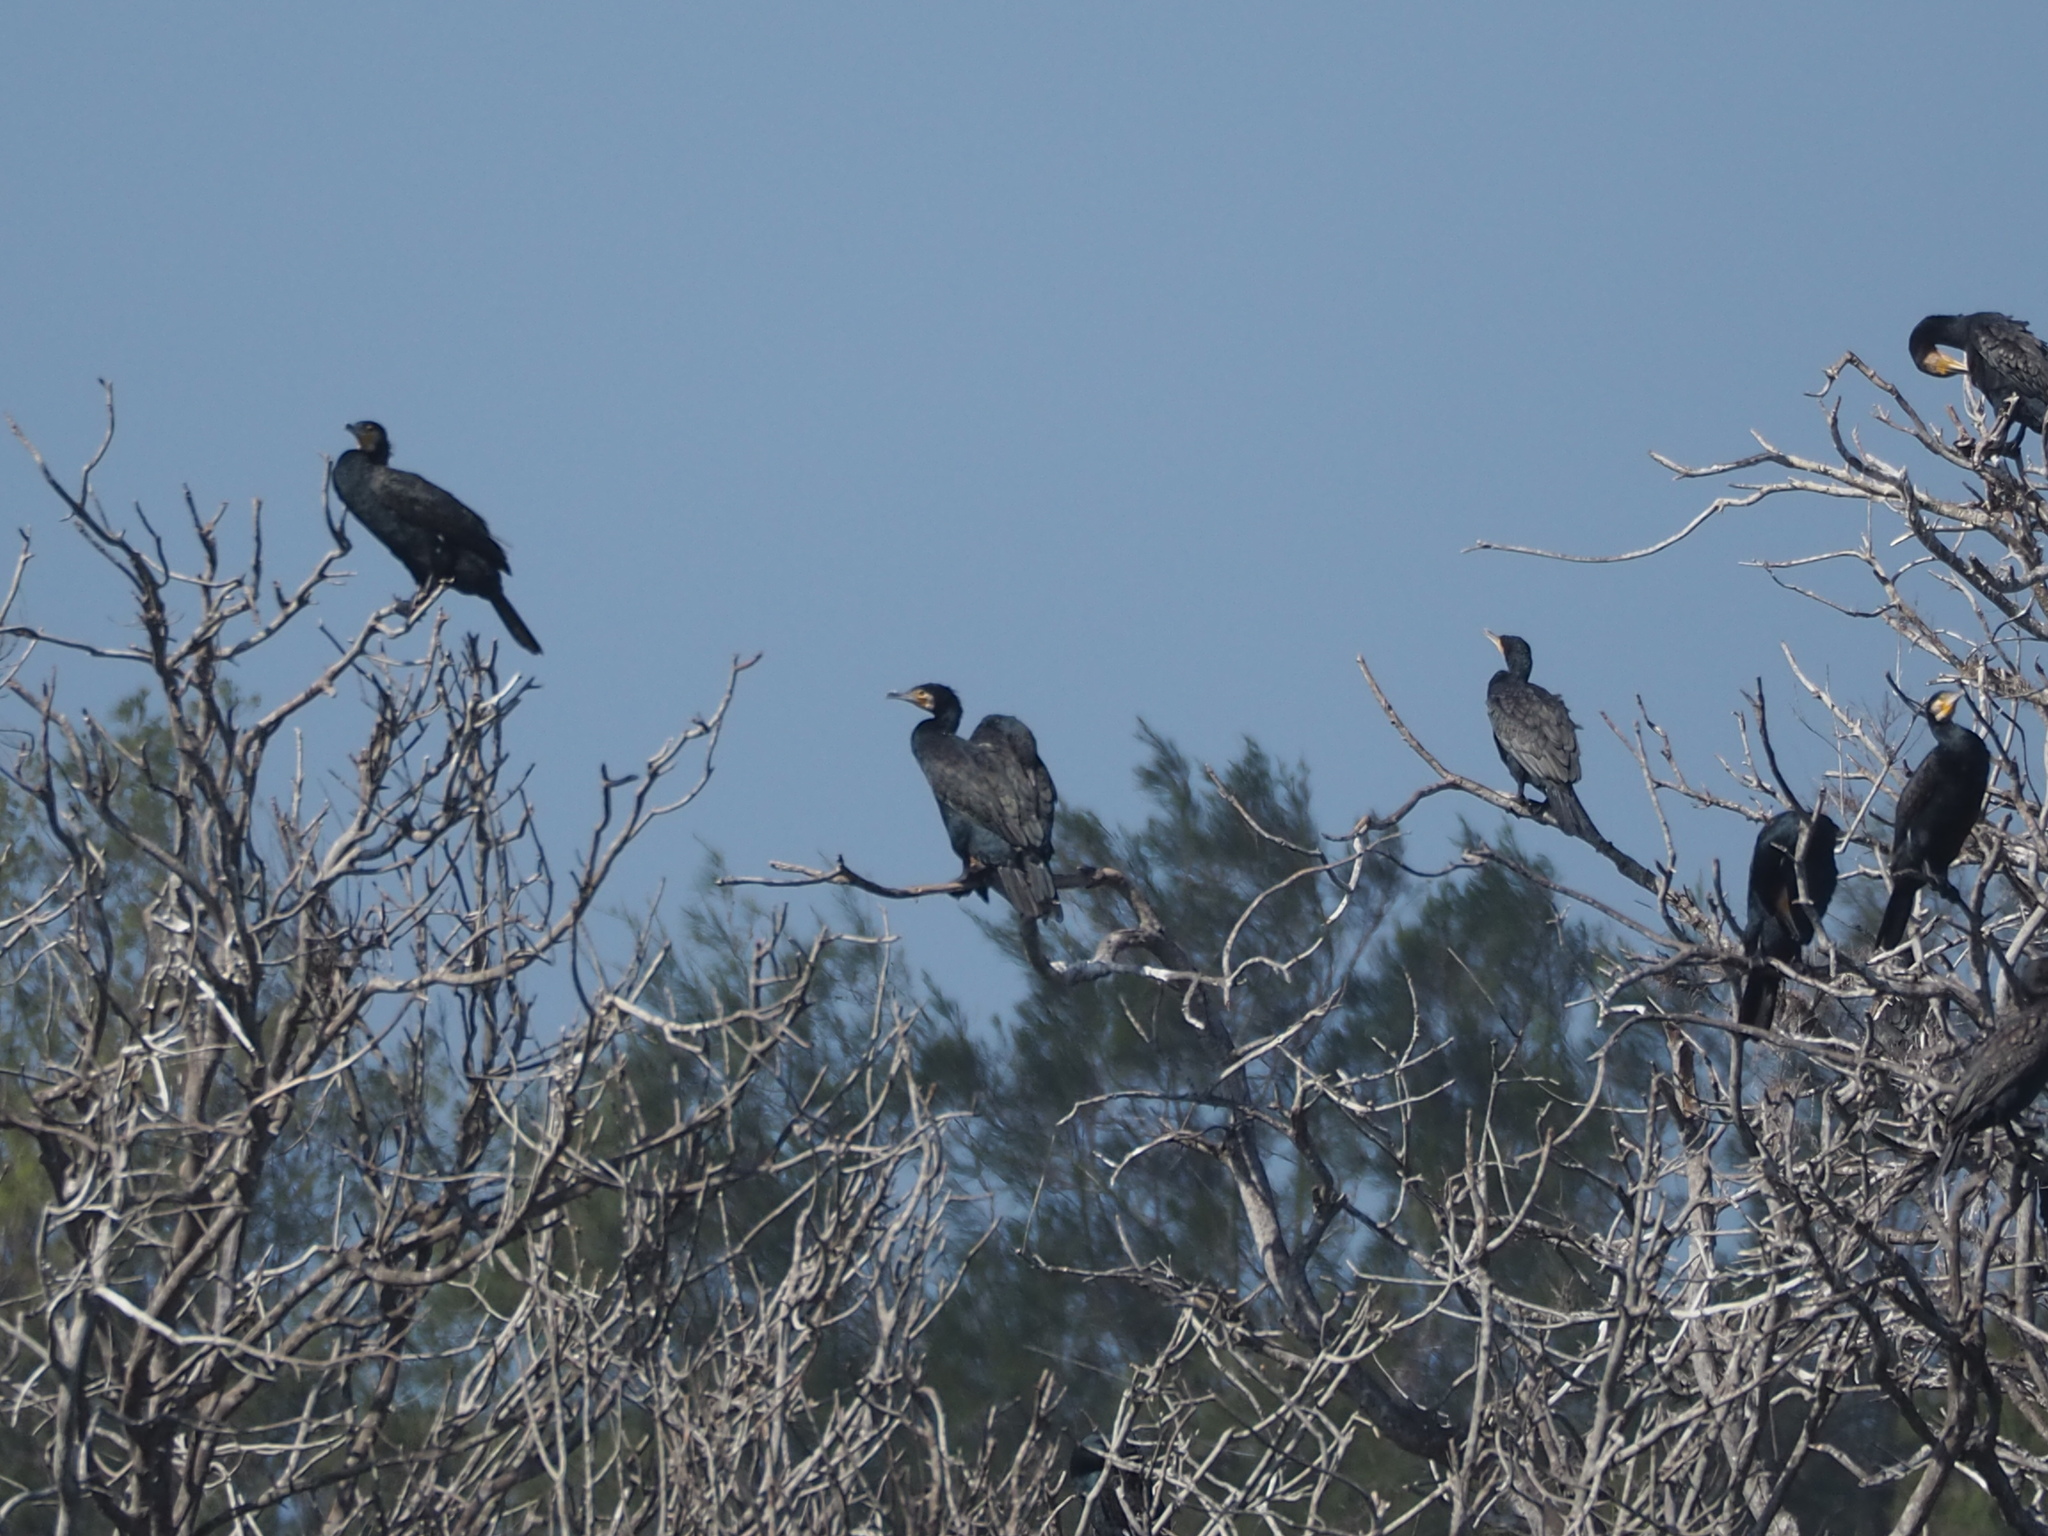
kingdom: Animalia
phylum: Chordata
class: Aves
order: Suliformes
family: Phalacrocoracidae
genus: Phalacrocorax
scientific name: Phalacrocorax carbo
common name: Great cormorant
